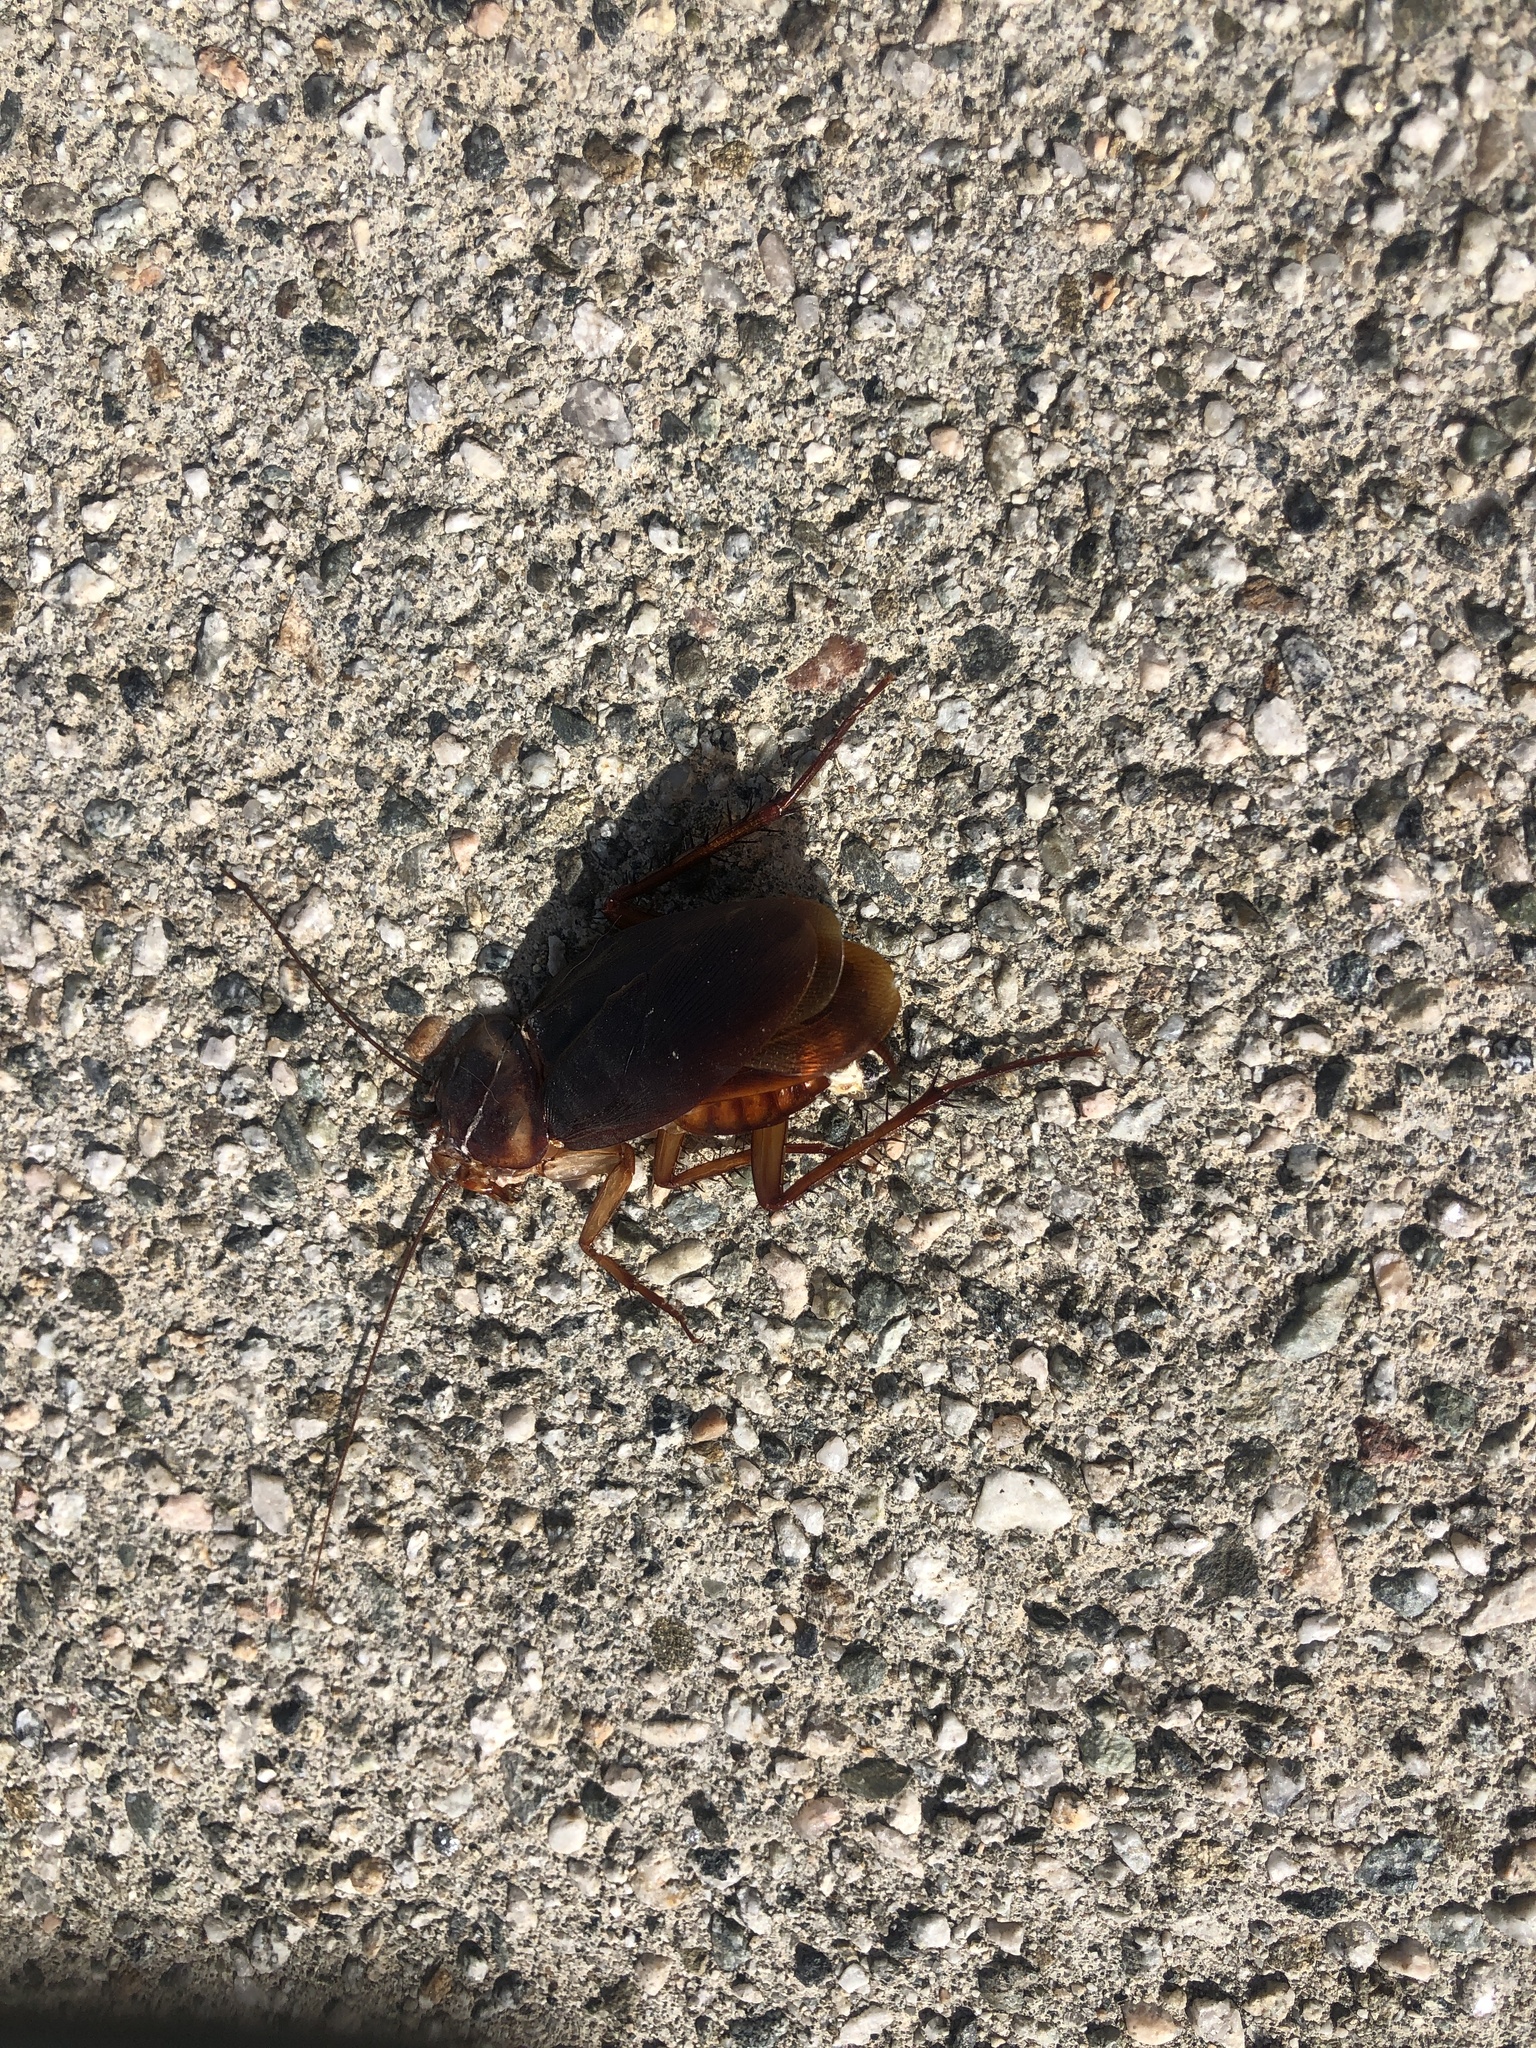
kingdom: Animalia
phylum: Arthropoda
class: Insecta
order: Blattodea
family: Blattidae
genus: Periplaneta
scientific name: Periplaneta americana
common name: American cockroach
